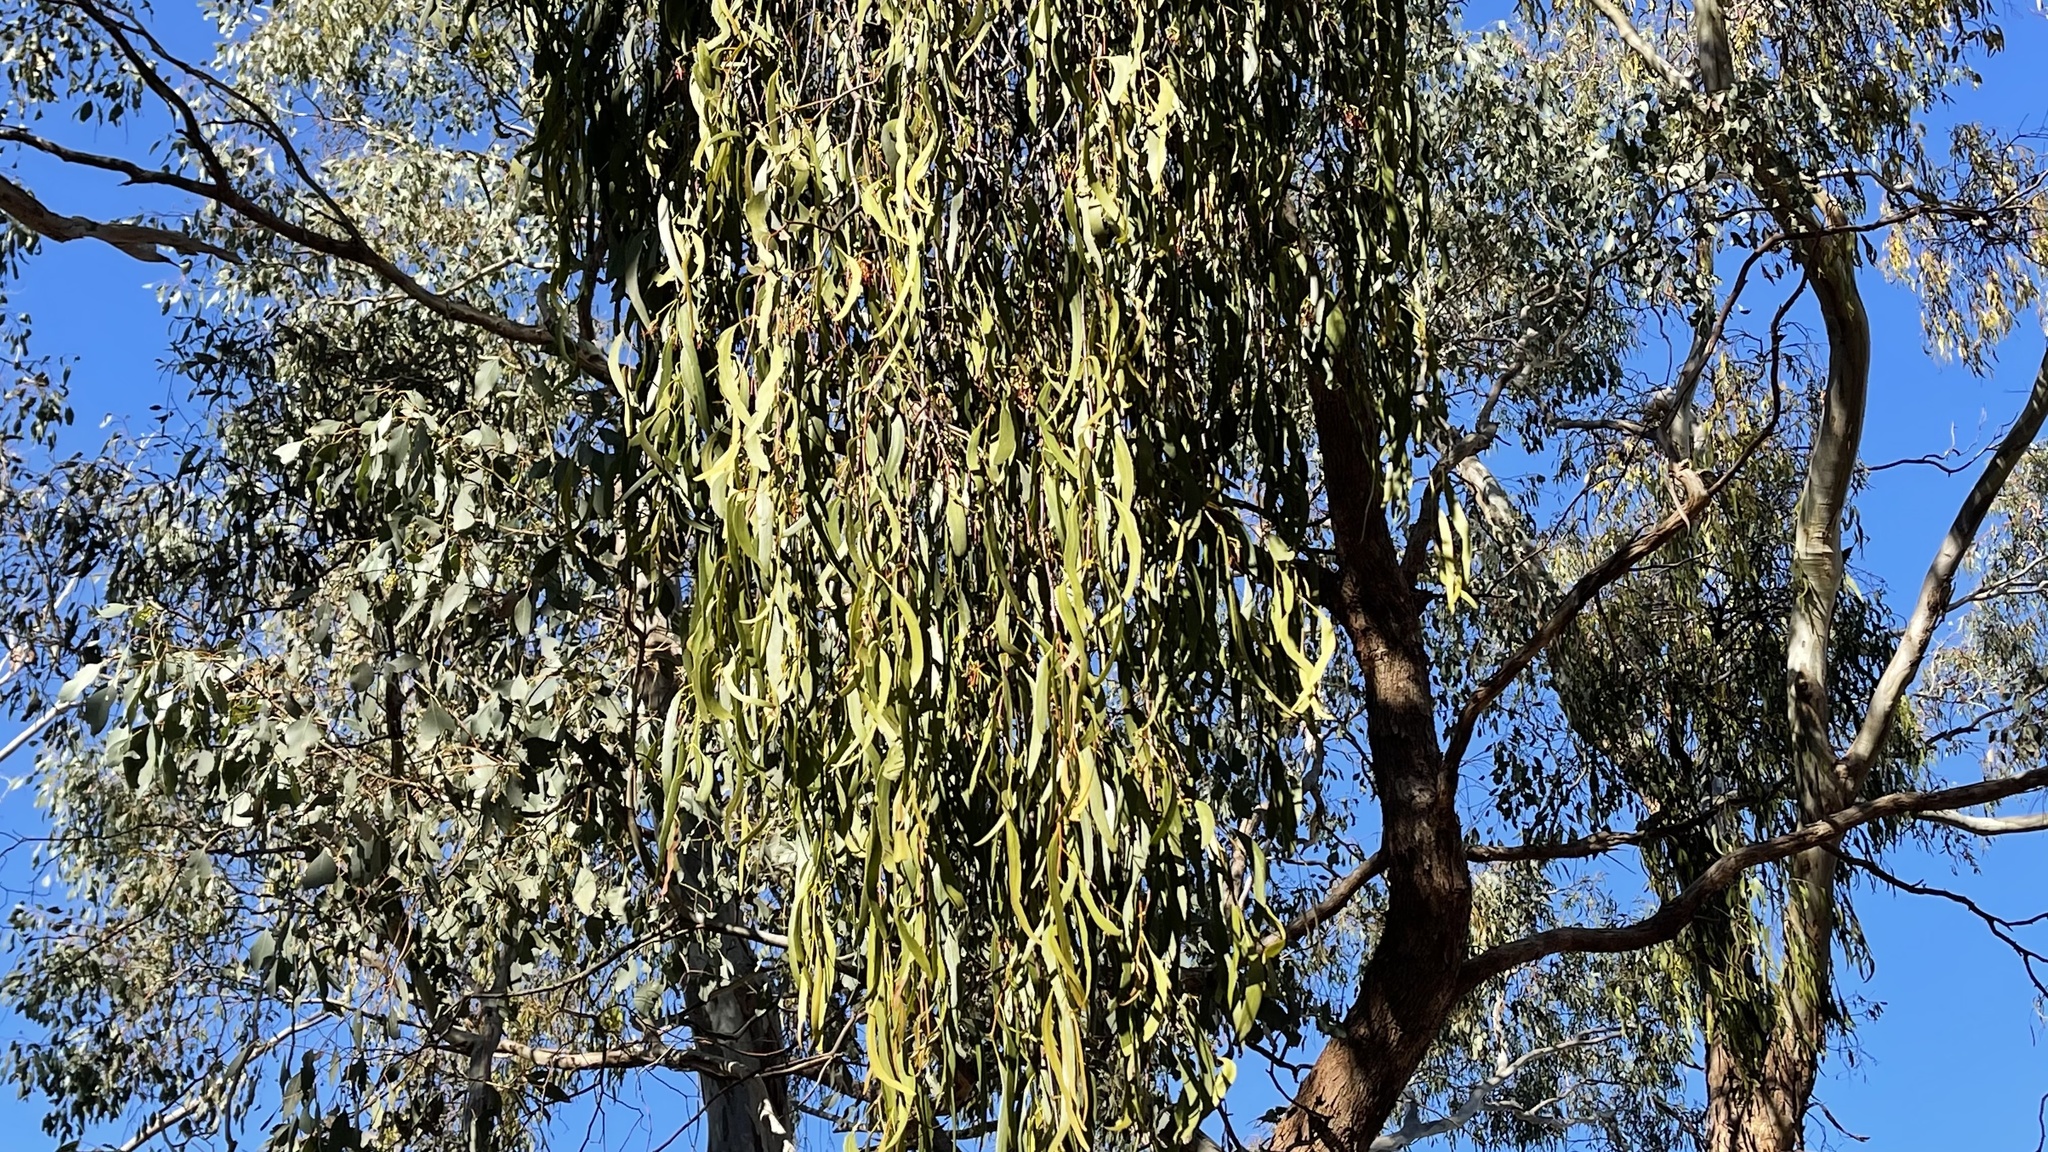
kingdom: Plantae
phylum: Tracheophyta
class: Magnoliopsida
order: Santalales
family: Loranthaceae
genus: Amyema
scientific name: Amyema miquelii
